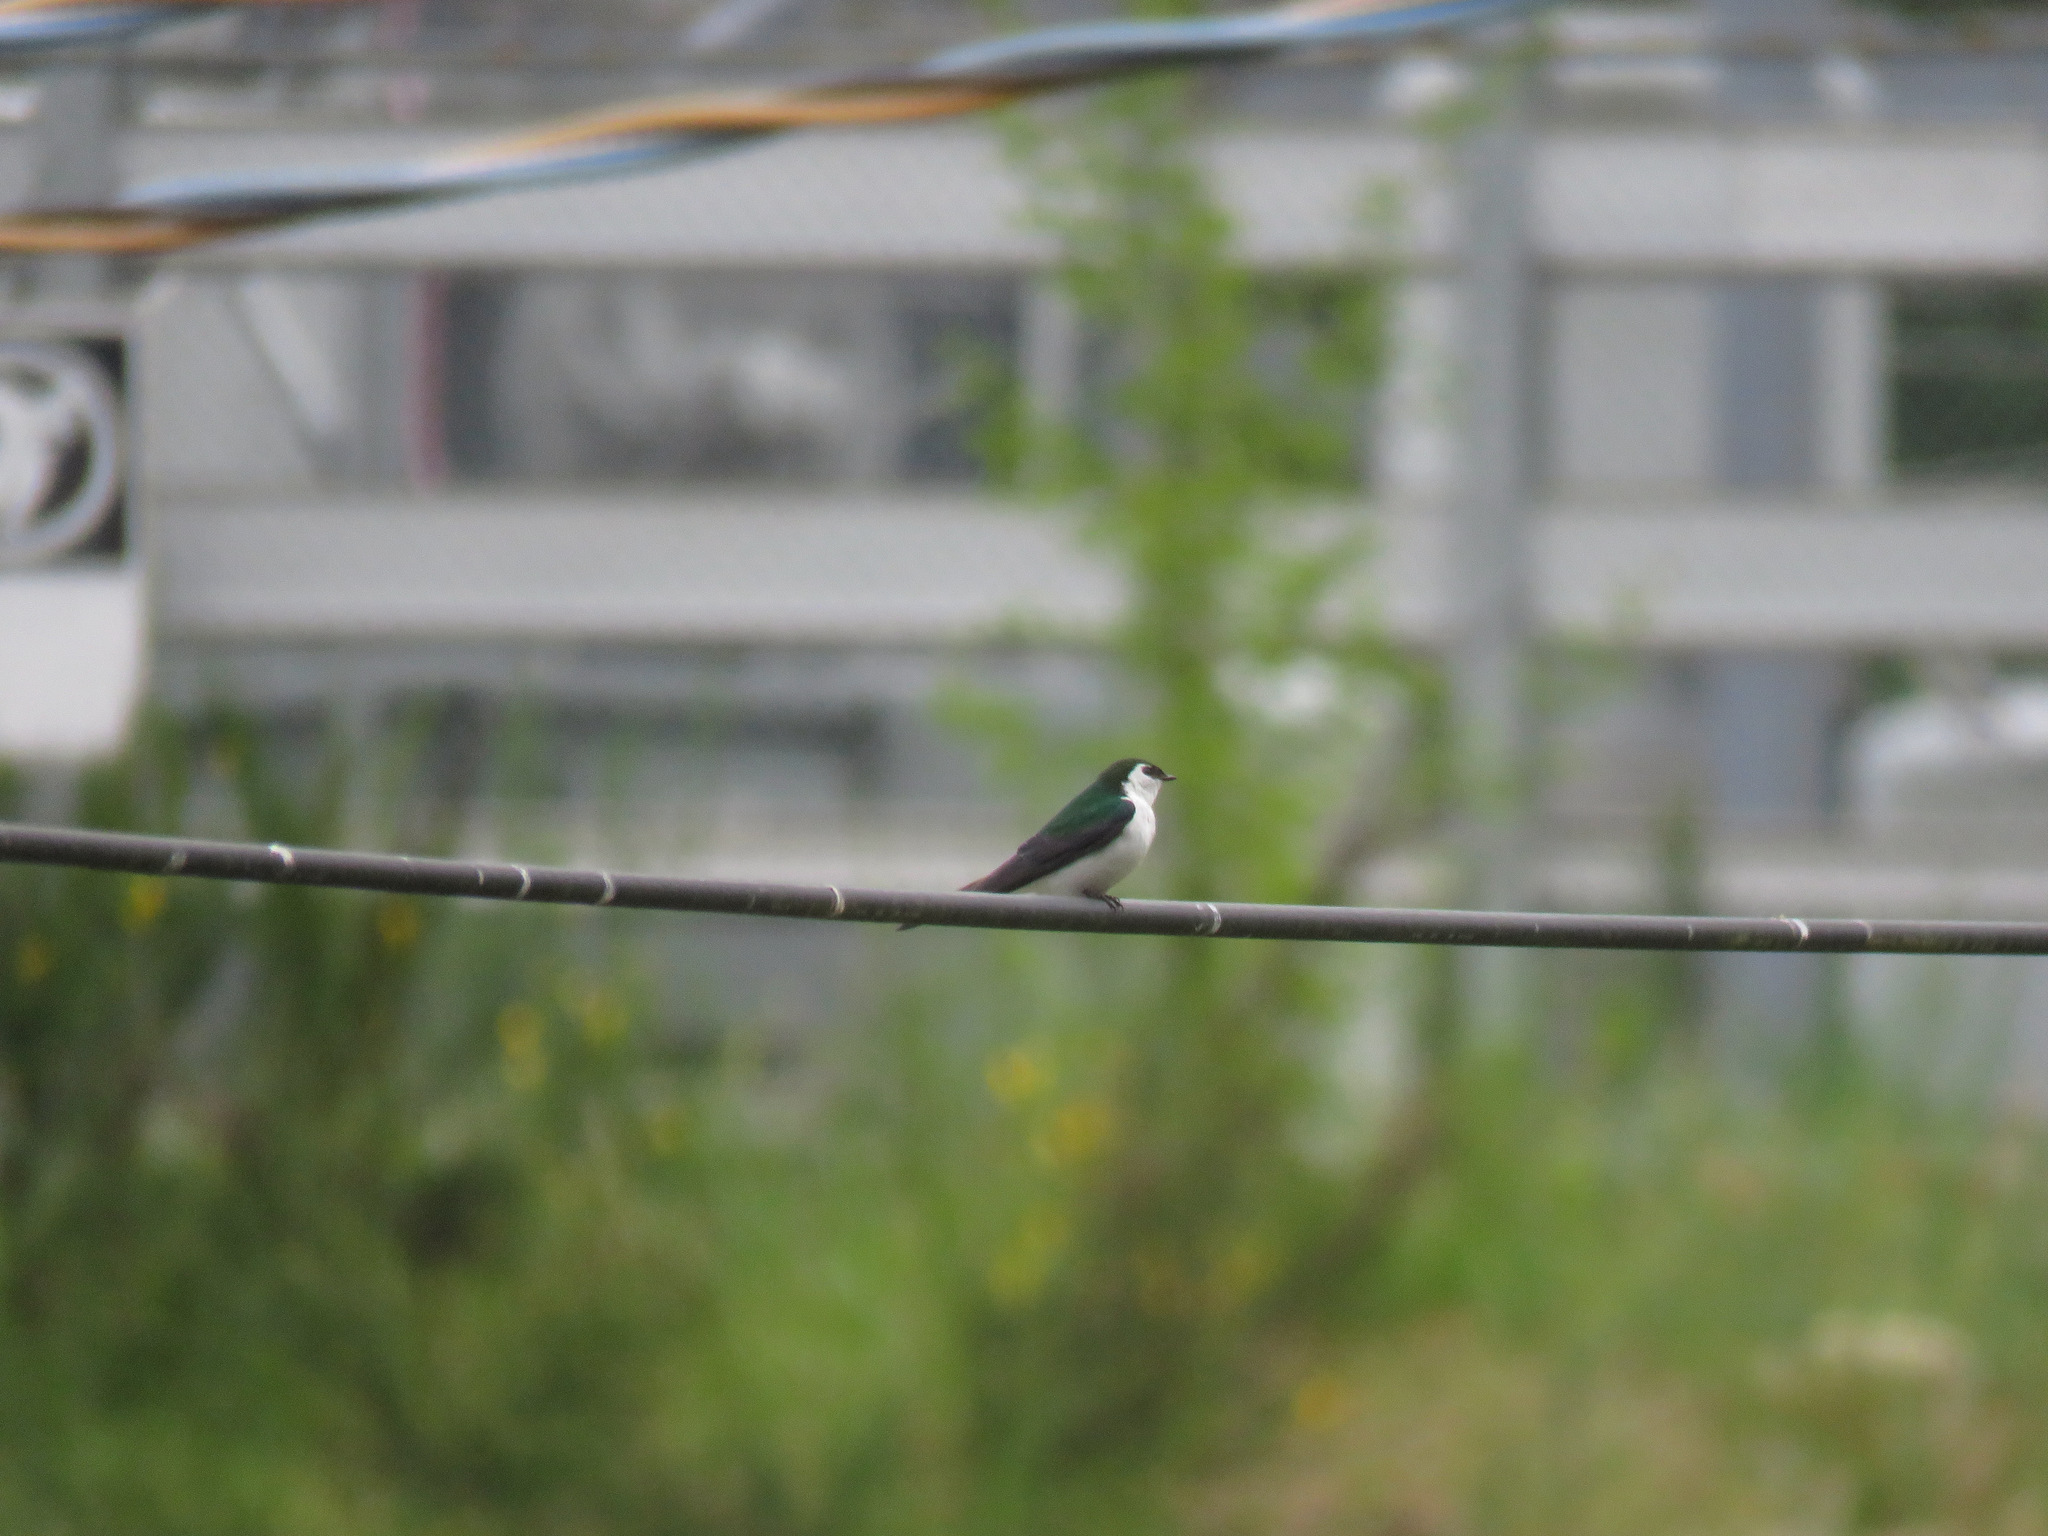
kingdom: Animalia
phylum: Chordata
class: Aves
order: Passeriformes
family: Hirundinidae
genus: Tachycineta
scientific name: Tachycineta thalassina
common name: Violet-green swallow
